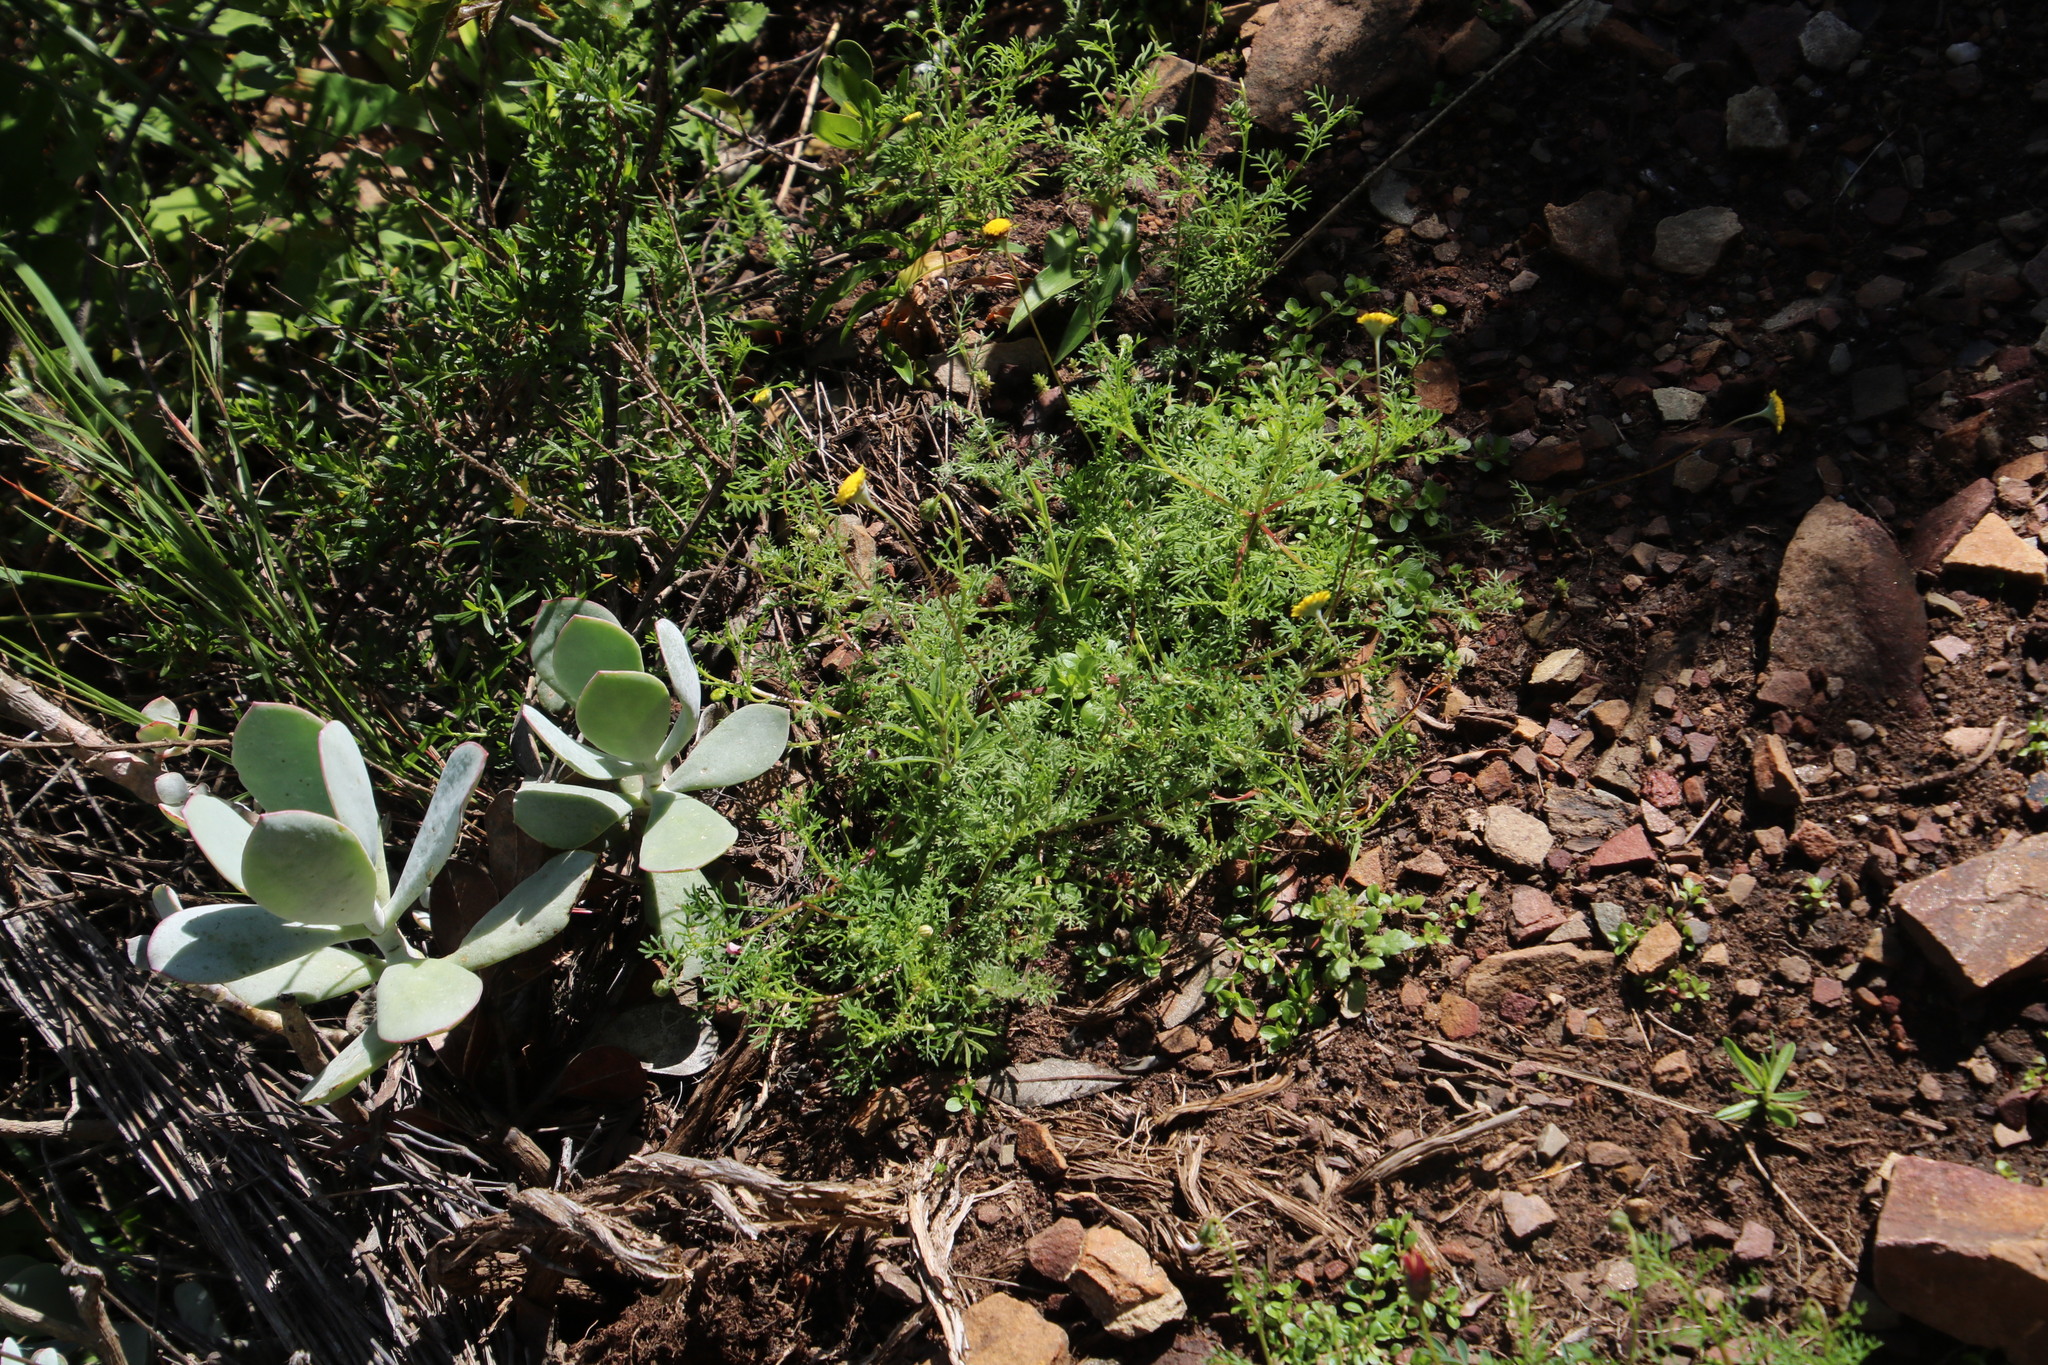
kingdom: Plantae
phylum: Tracheophyta
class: Magnoliopsida
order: Asterales
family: Asteraceae
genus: Cotula
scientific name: Cotula pruinosa
